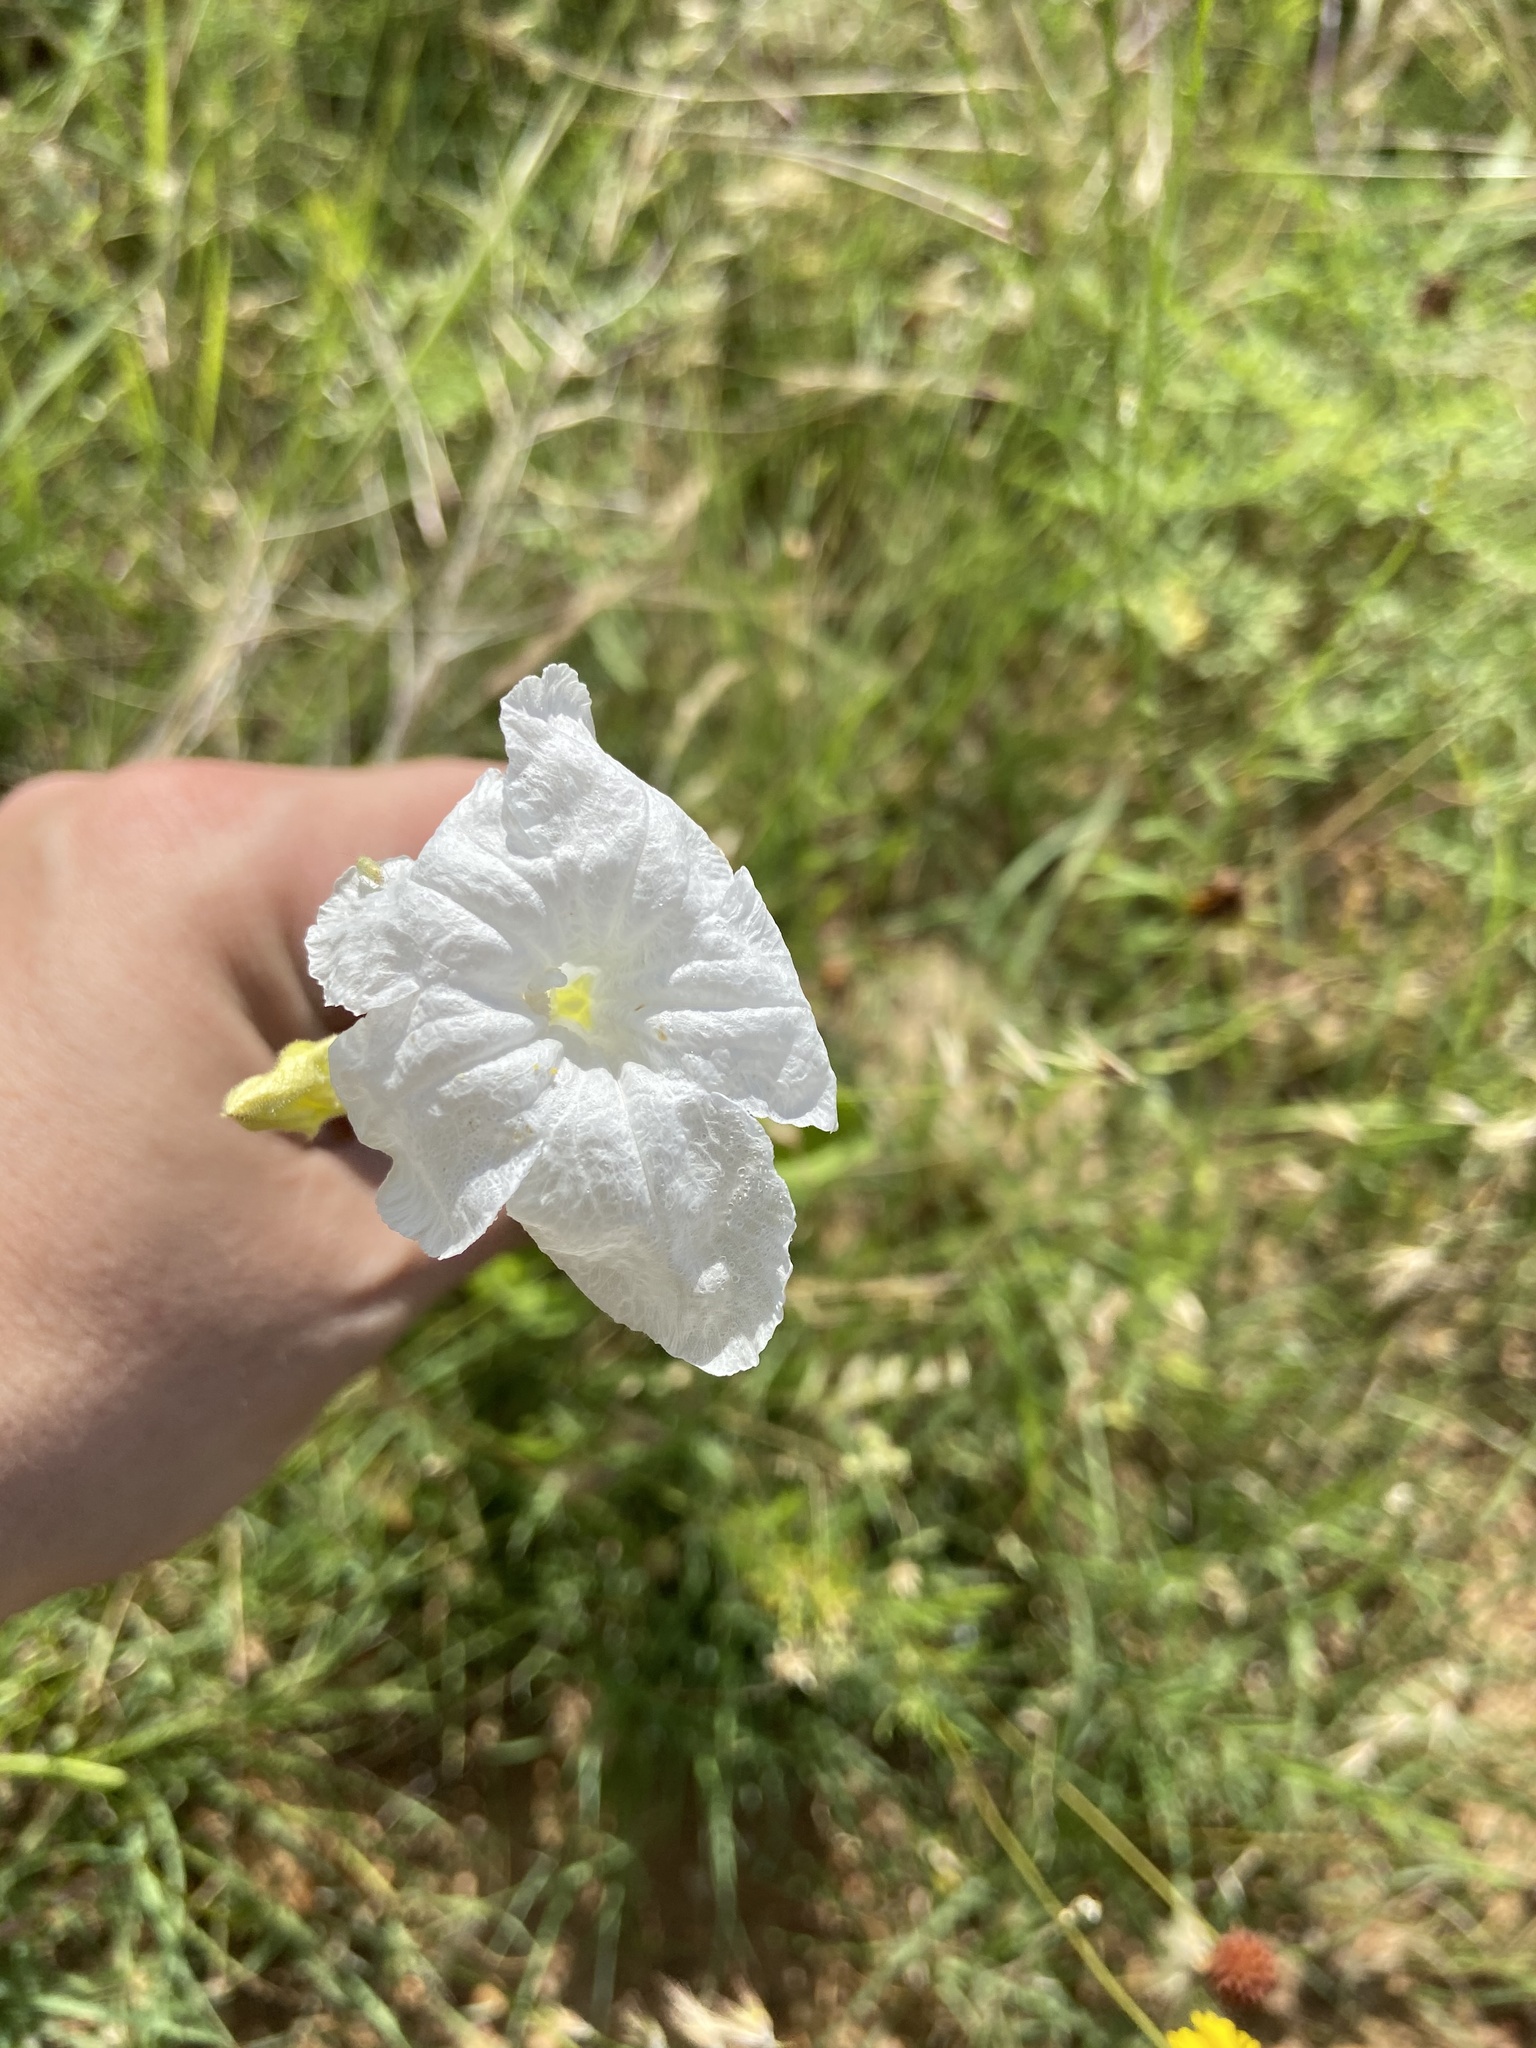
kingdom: Plantae
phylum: Tracheophyta
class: Magnoliopsida
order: Lamiales
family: Acanthaceae
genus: Ruellia
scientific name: Ruellia metziae
